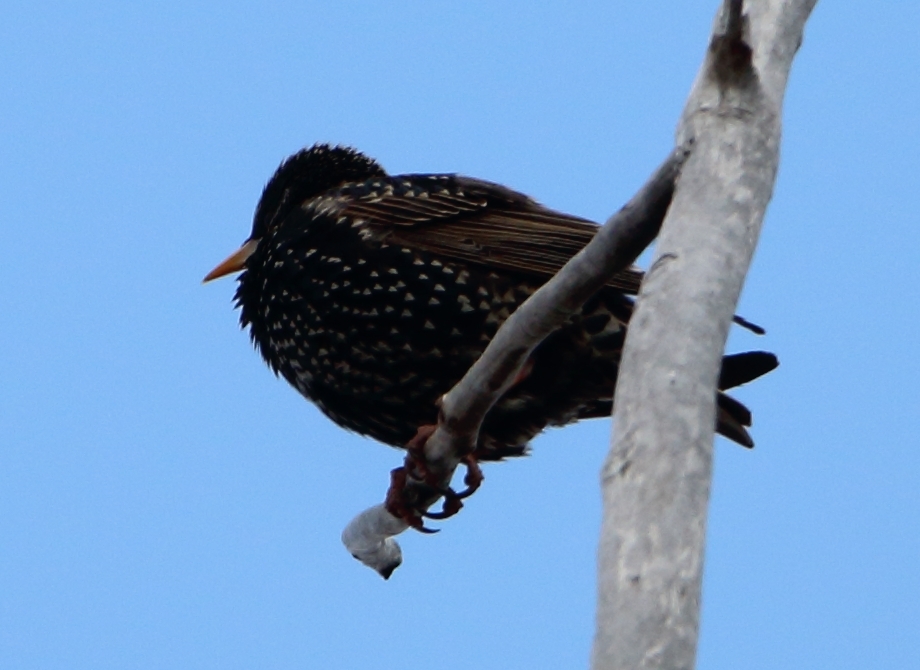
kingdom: Animalia
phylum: Chordata
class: Aves
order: Passeriformes
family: Sturnidae
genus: Sturnus
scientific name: Sturnus vulgaris
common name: Common starling
